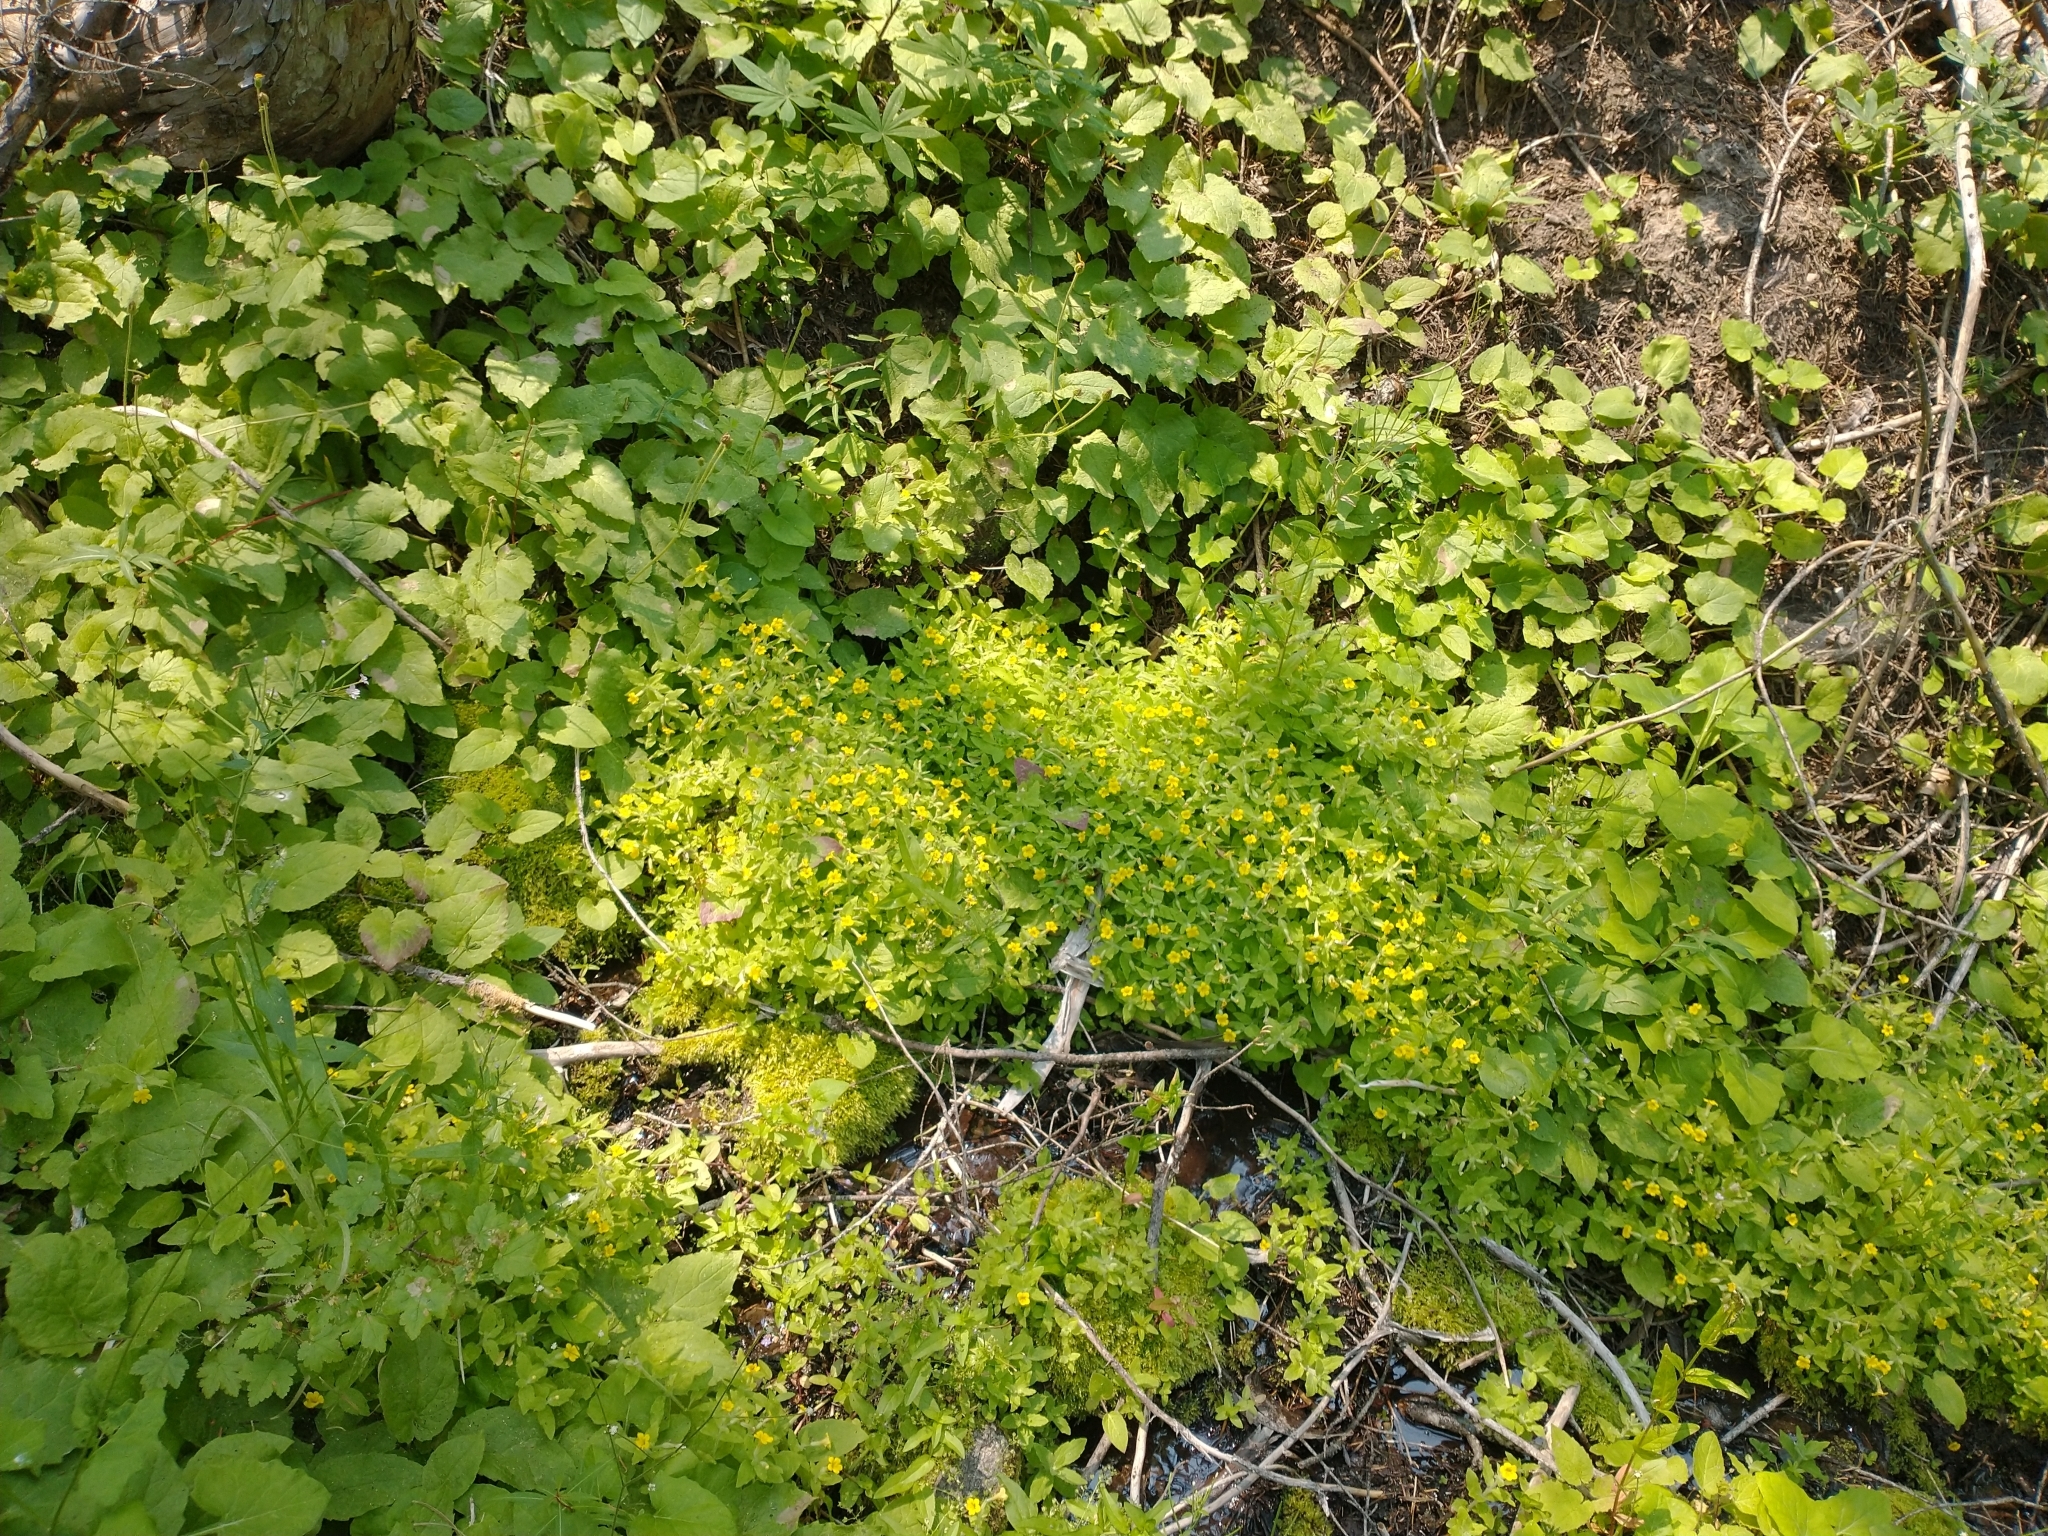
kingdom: Plantae
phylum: Tracheophyta
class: Magnoliopsida
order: Lamiales
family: Phrymaceae
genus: Erythranthe
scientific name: Erythranthe moschata
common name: Muskflower
